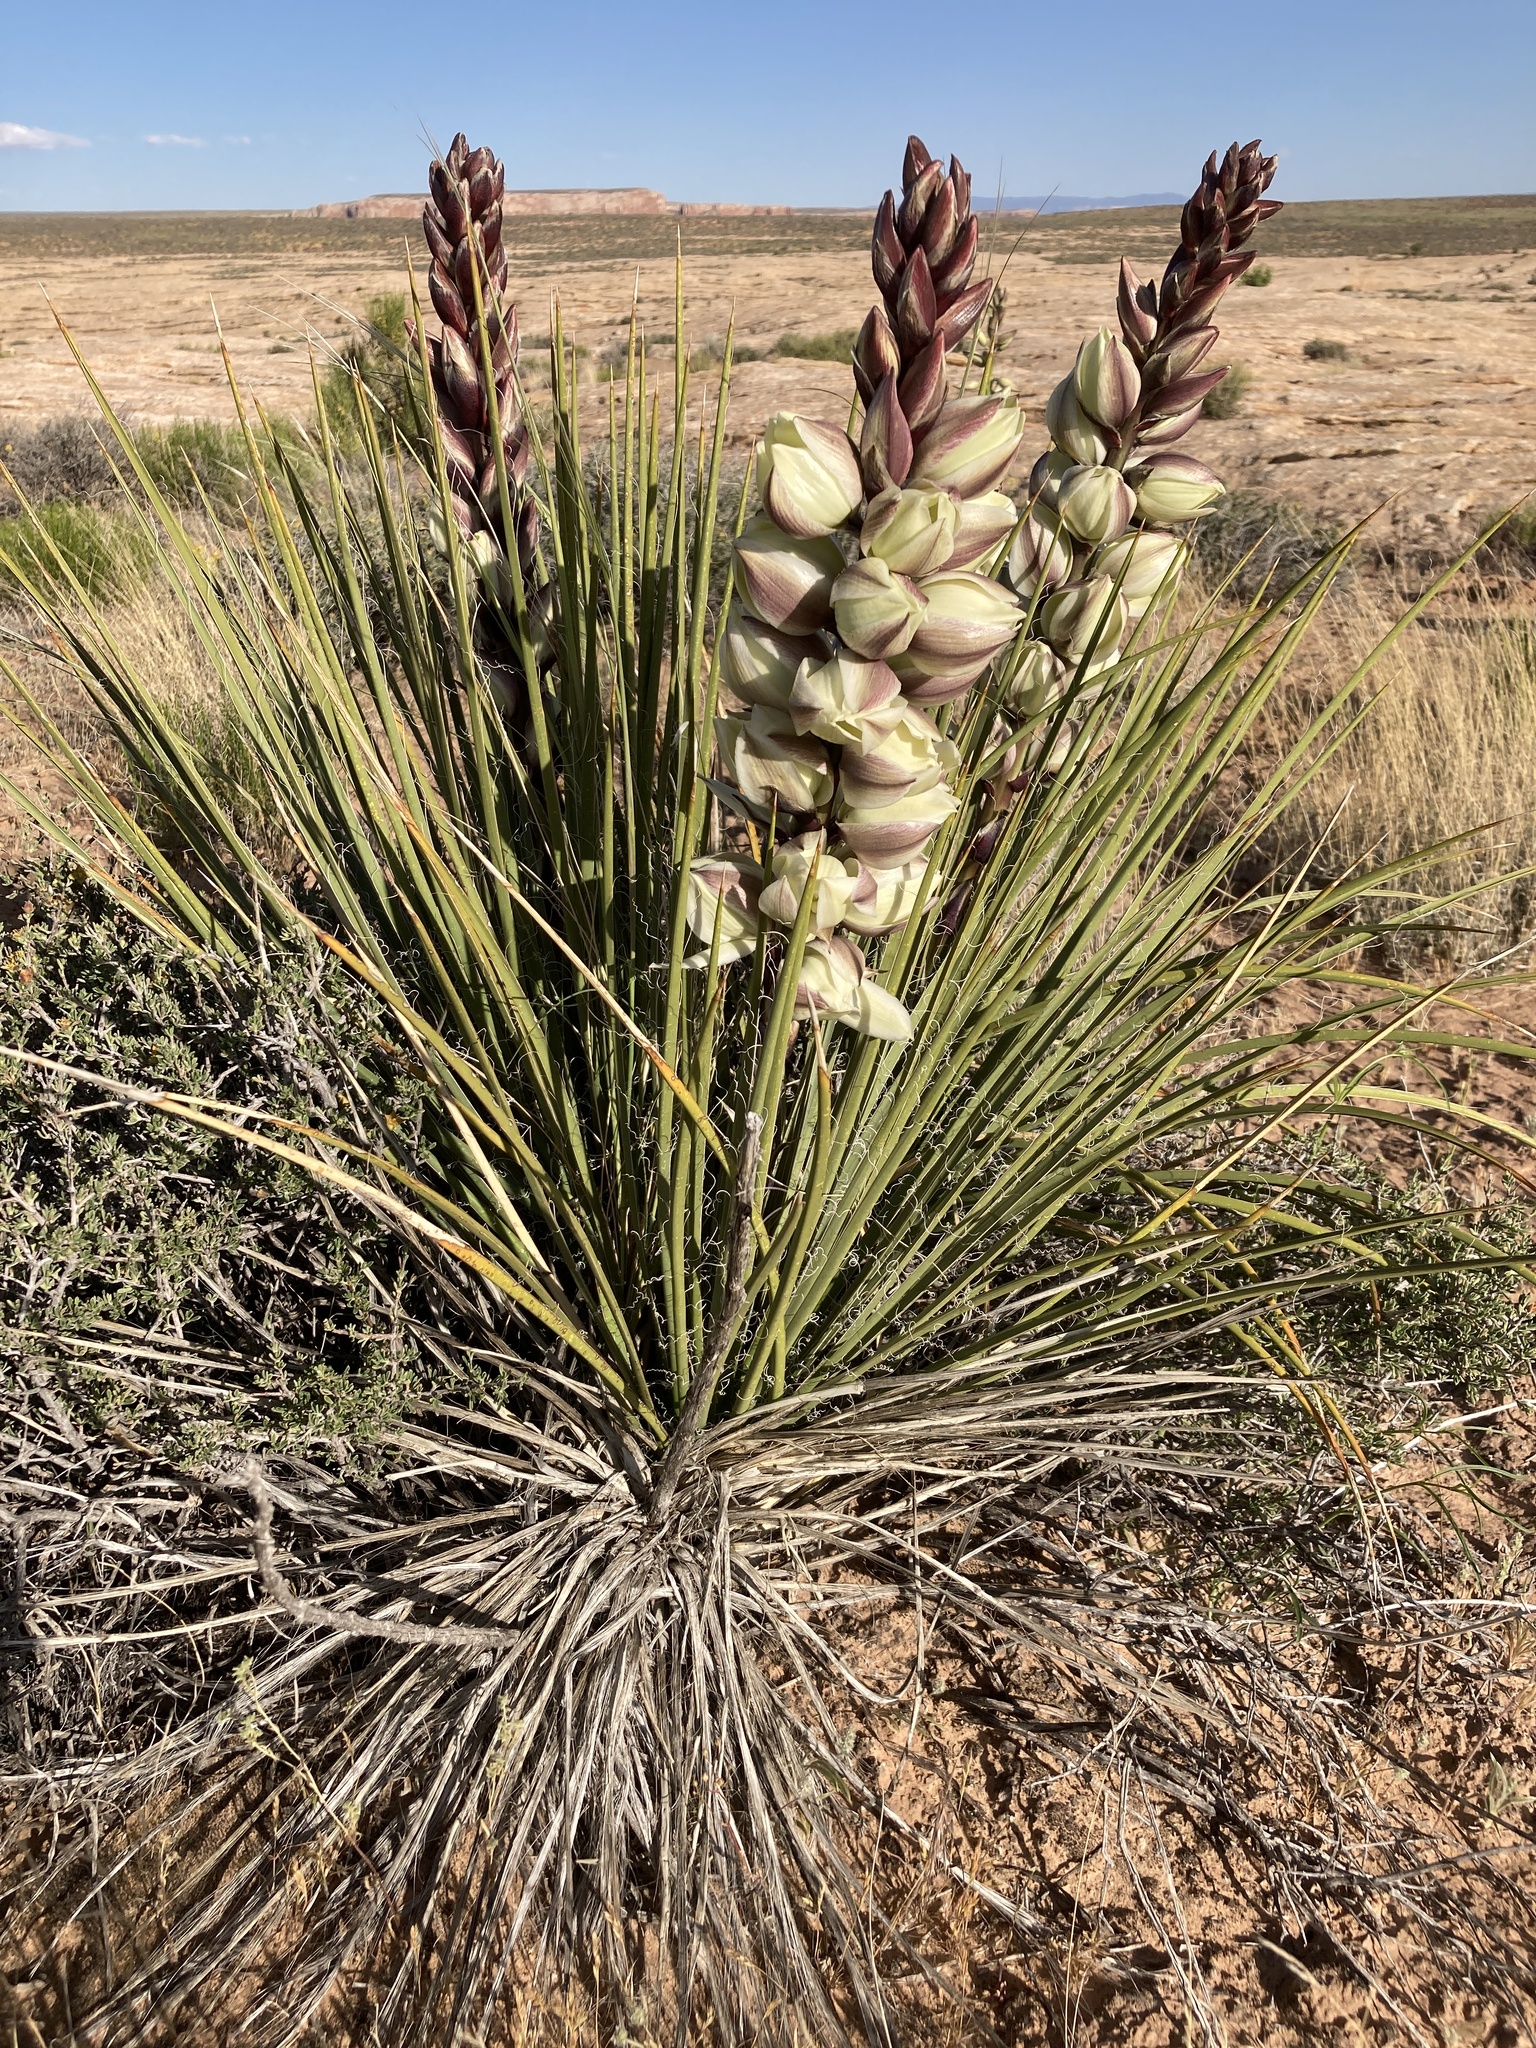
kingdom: Plantae
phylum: Tracheophyta
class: Liliopsida
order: Asparagales
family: Asparagaceae
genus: Yucca
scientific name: Yucca baileyi
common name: Alpine yucca
